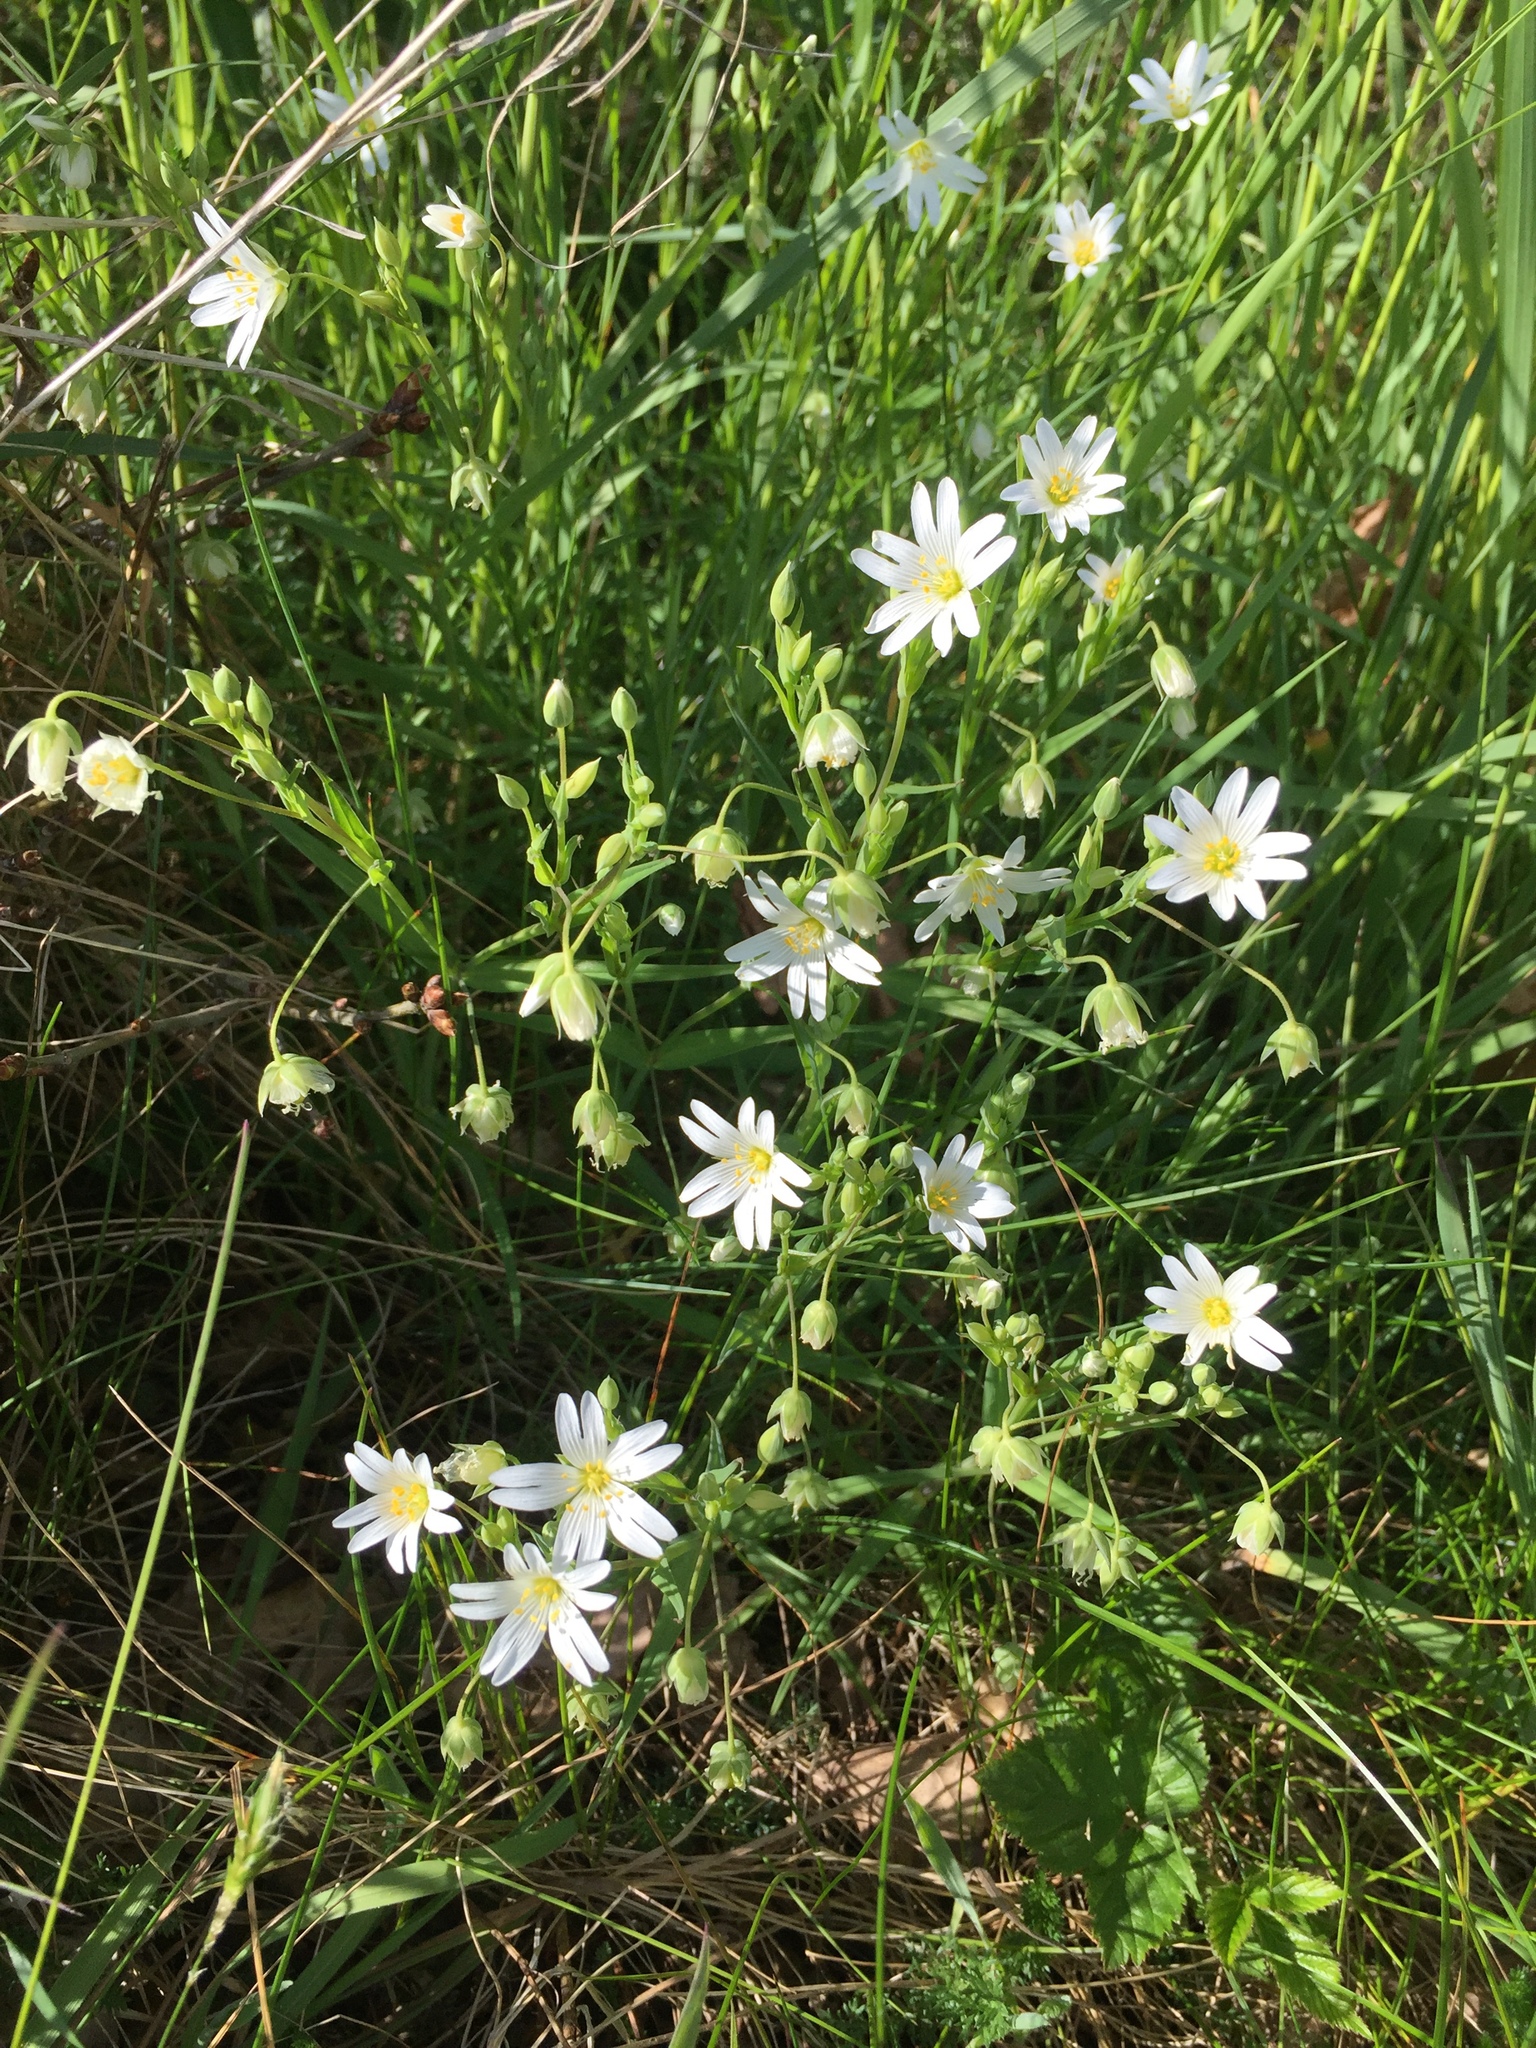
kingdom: Plantae
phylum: Tracheophyta
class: Magnoliopsida
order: Caryophyllales
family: Caryophyllaceae
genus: Rabelera
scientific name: Rabelera holostea
